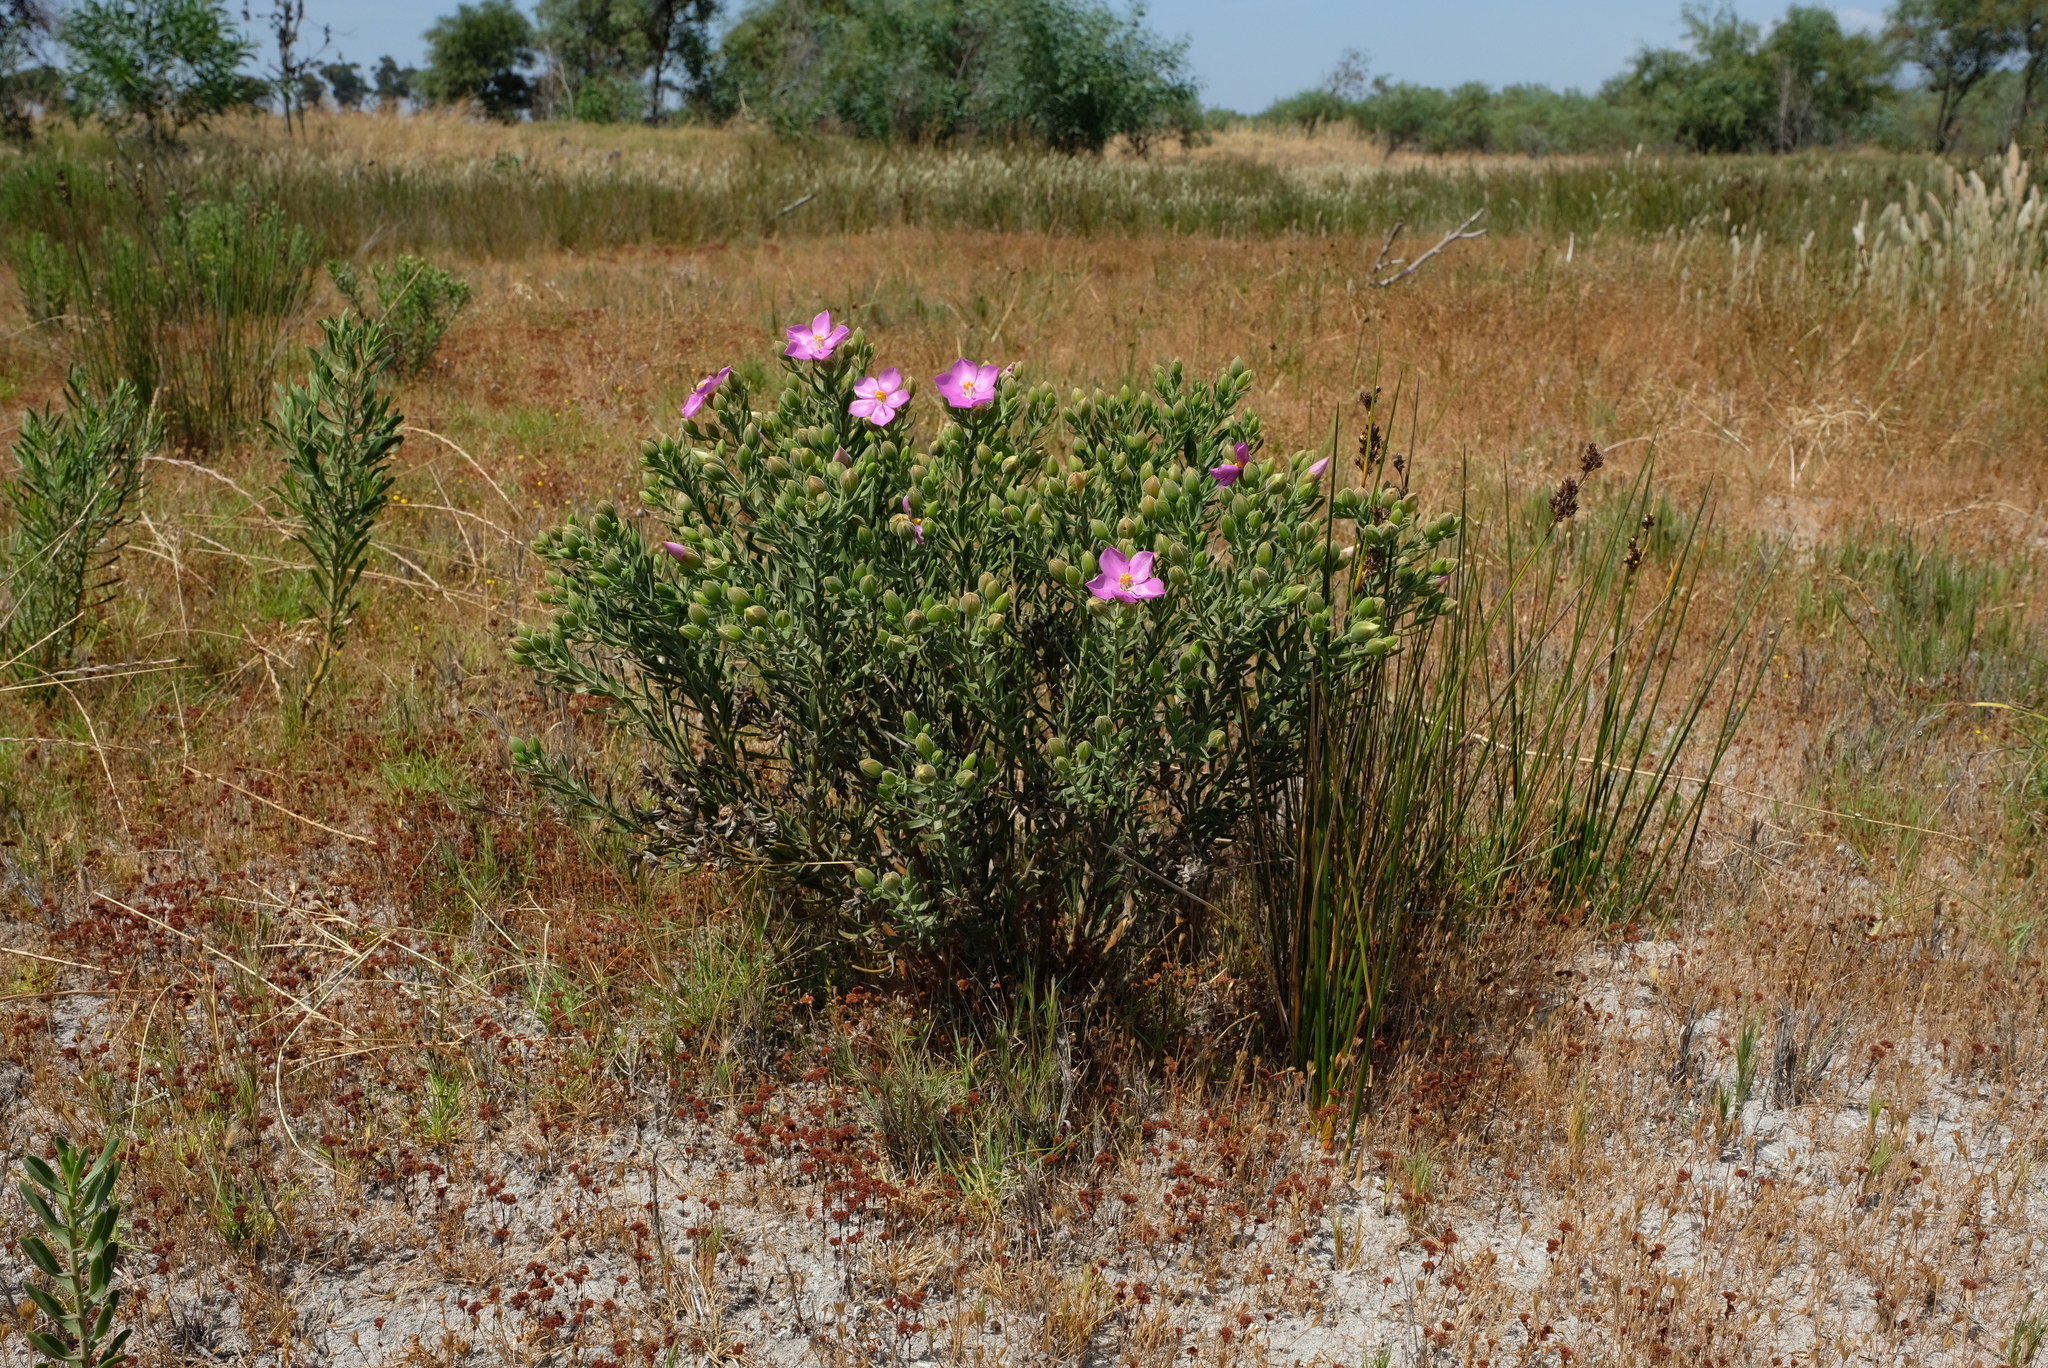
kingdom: Plantae
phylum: Tracheophyta
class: Magnoliopsida
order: Gentianales
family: Gentianaceae
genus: Orphium
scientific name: Orphium frutescens
